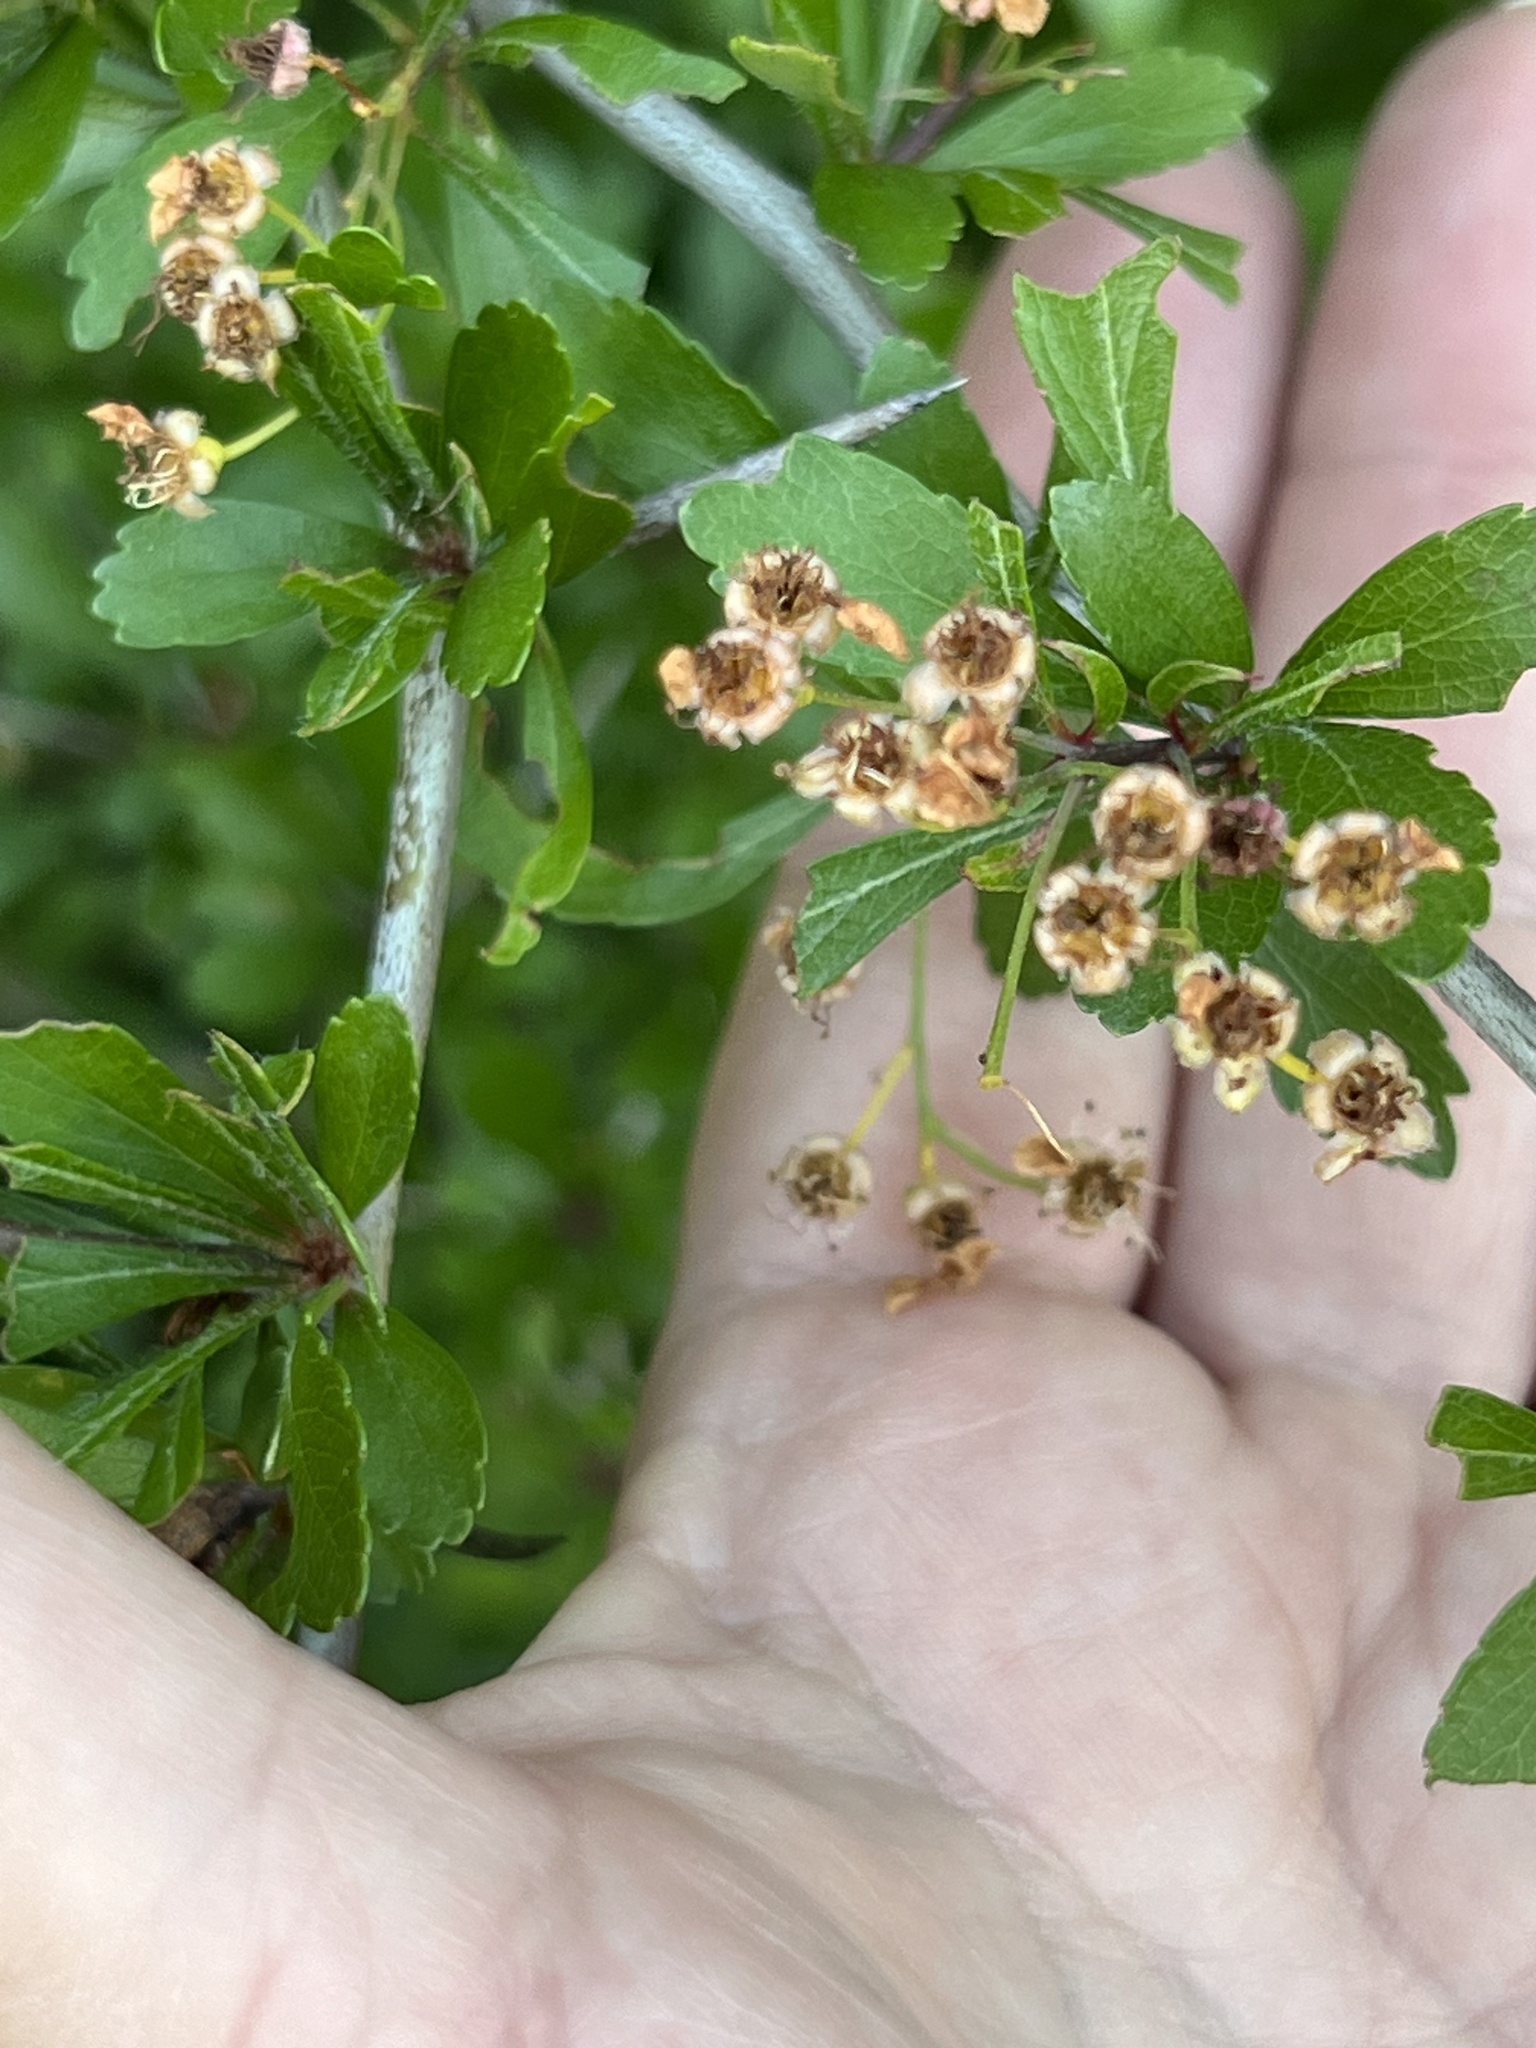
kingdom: Plantae
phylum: Tracheophyta
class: Magnoliopsida
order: Rosales
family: Rosaceae
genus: Crataegus
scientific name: Crataegus spathulata
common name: Littlehip hawthorn
